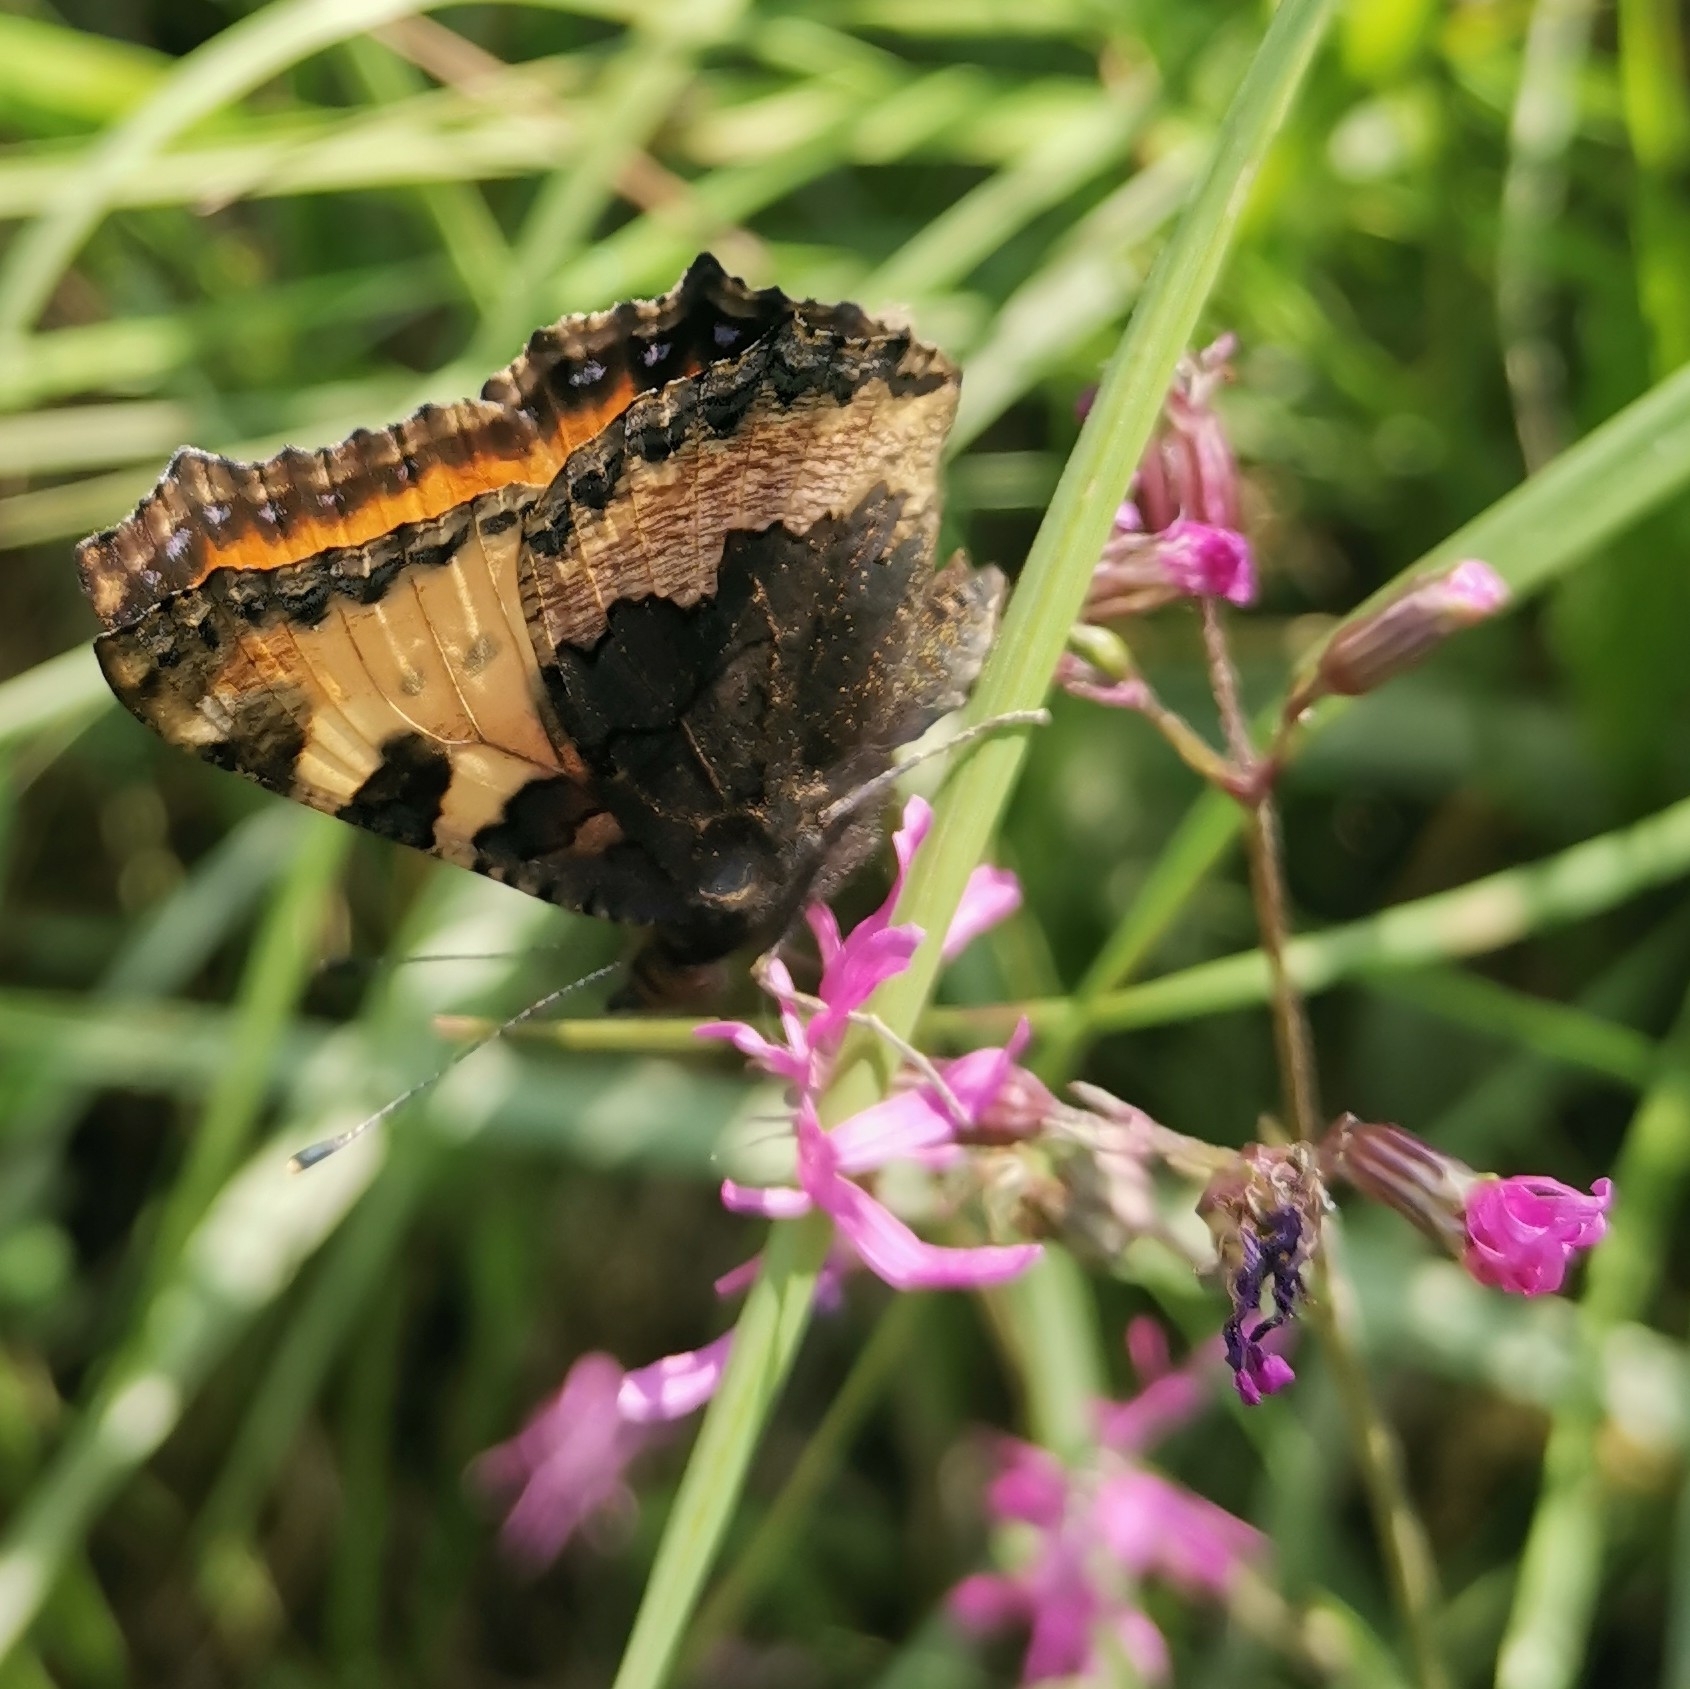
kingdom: Animalia
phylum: Arthropoda
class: Insecta
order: Lepidoptera
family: Nymphalidae
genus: Aglais
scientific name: Aglais urticae
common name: Small tortoiseshell
